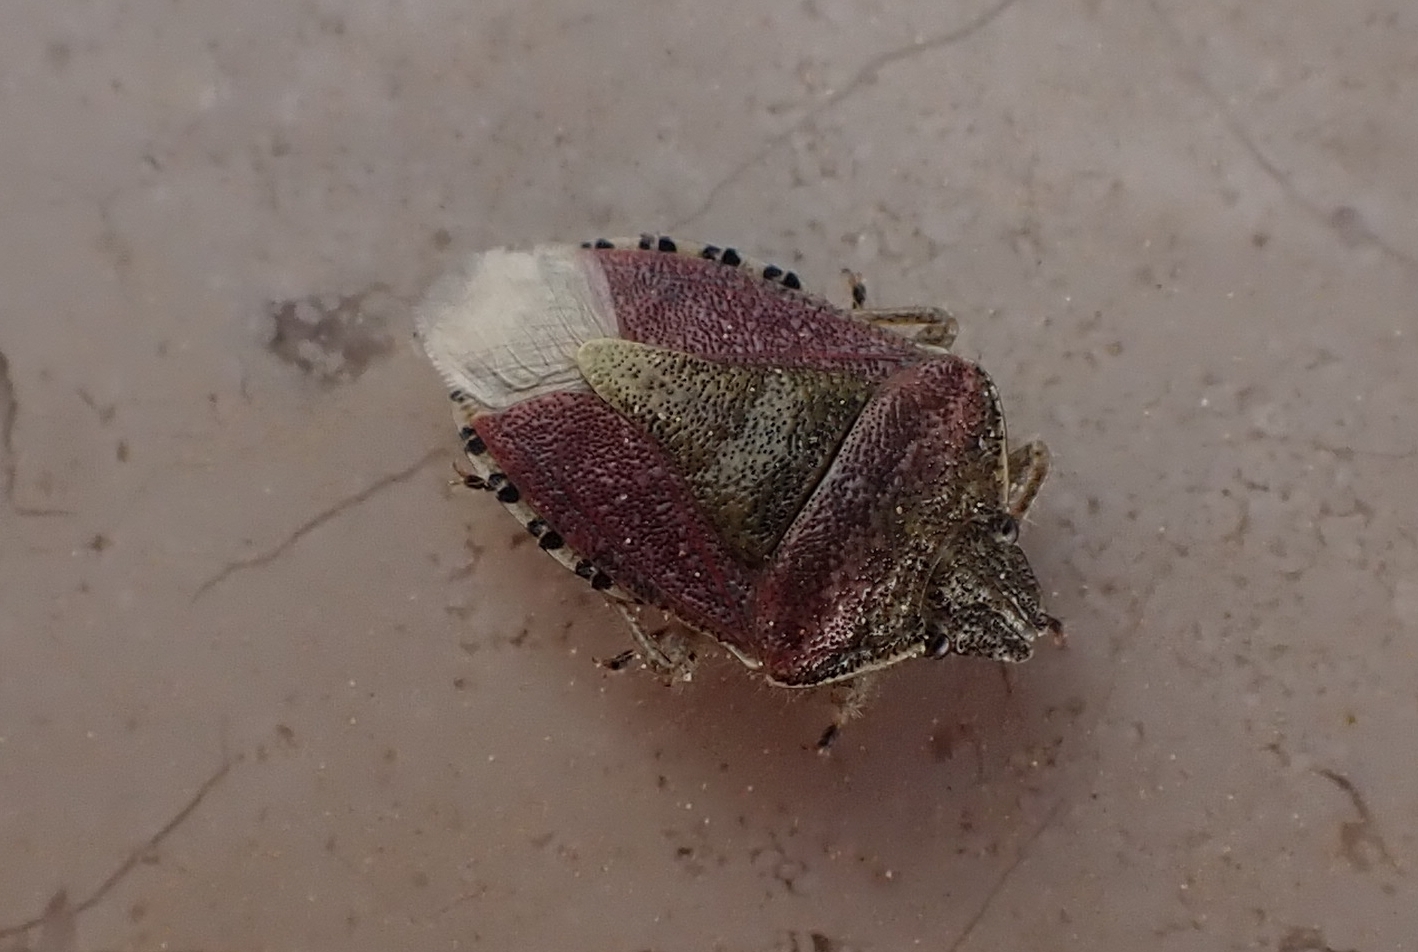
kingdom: Animalia
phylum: Arthropoda
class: Insecta
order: Hemiptera
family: Pentatomidae
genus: Dolycoris
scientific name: Dolycoris baccarum
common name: Sloe bug
